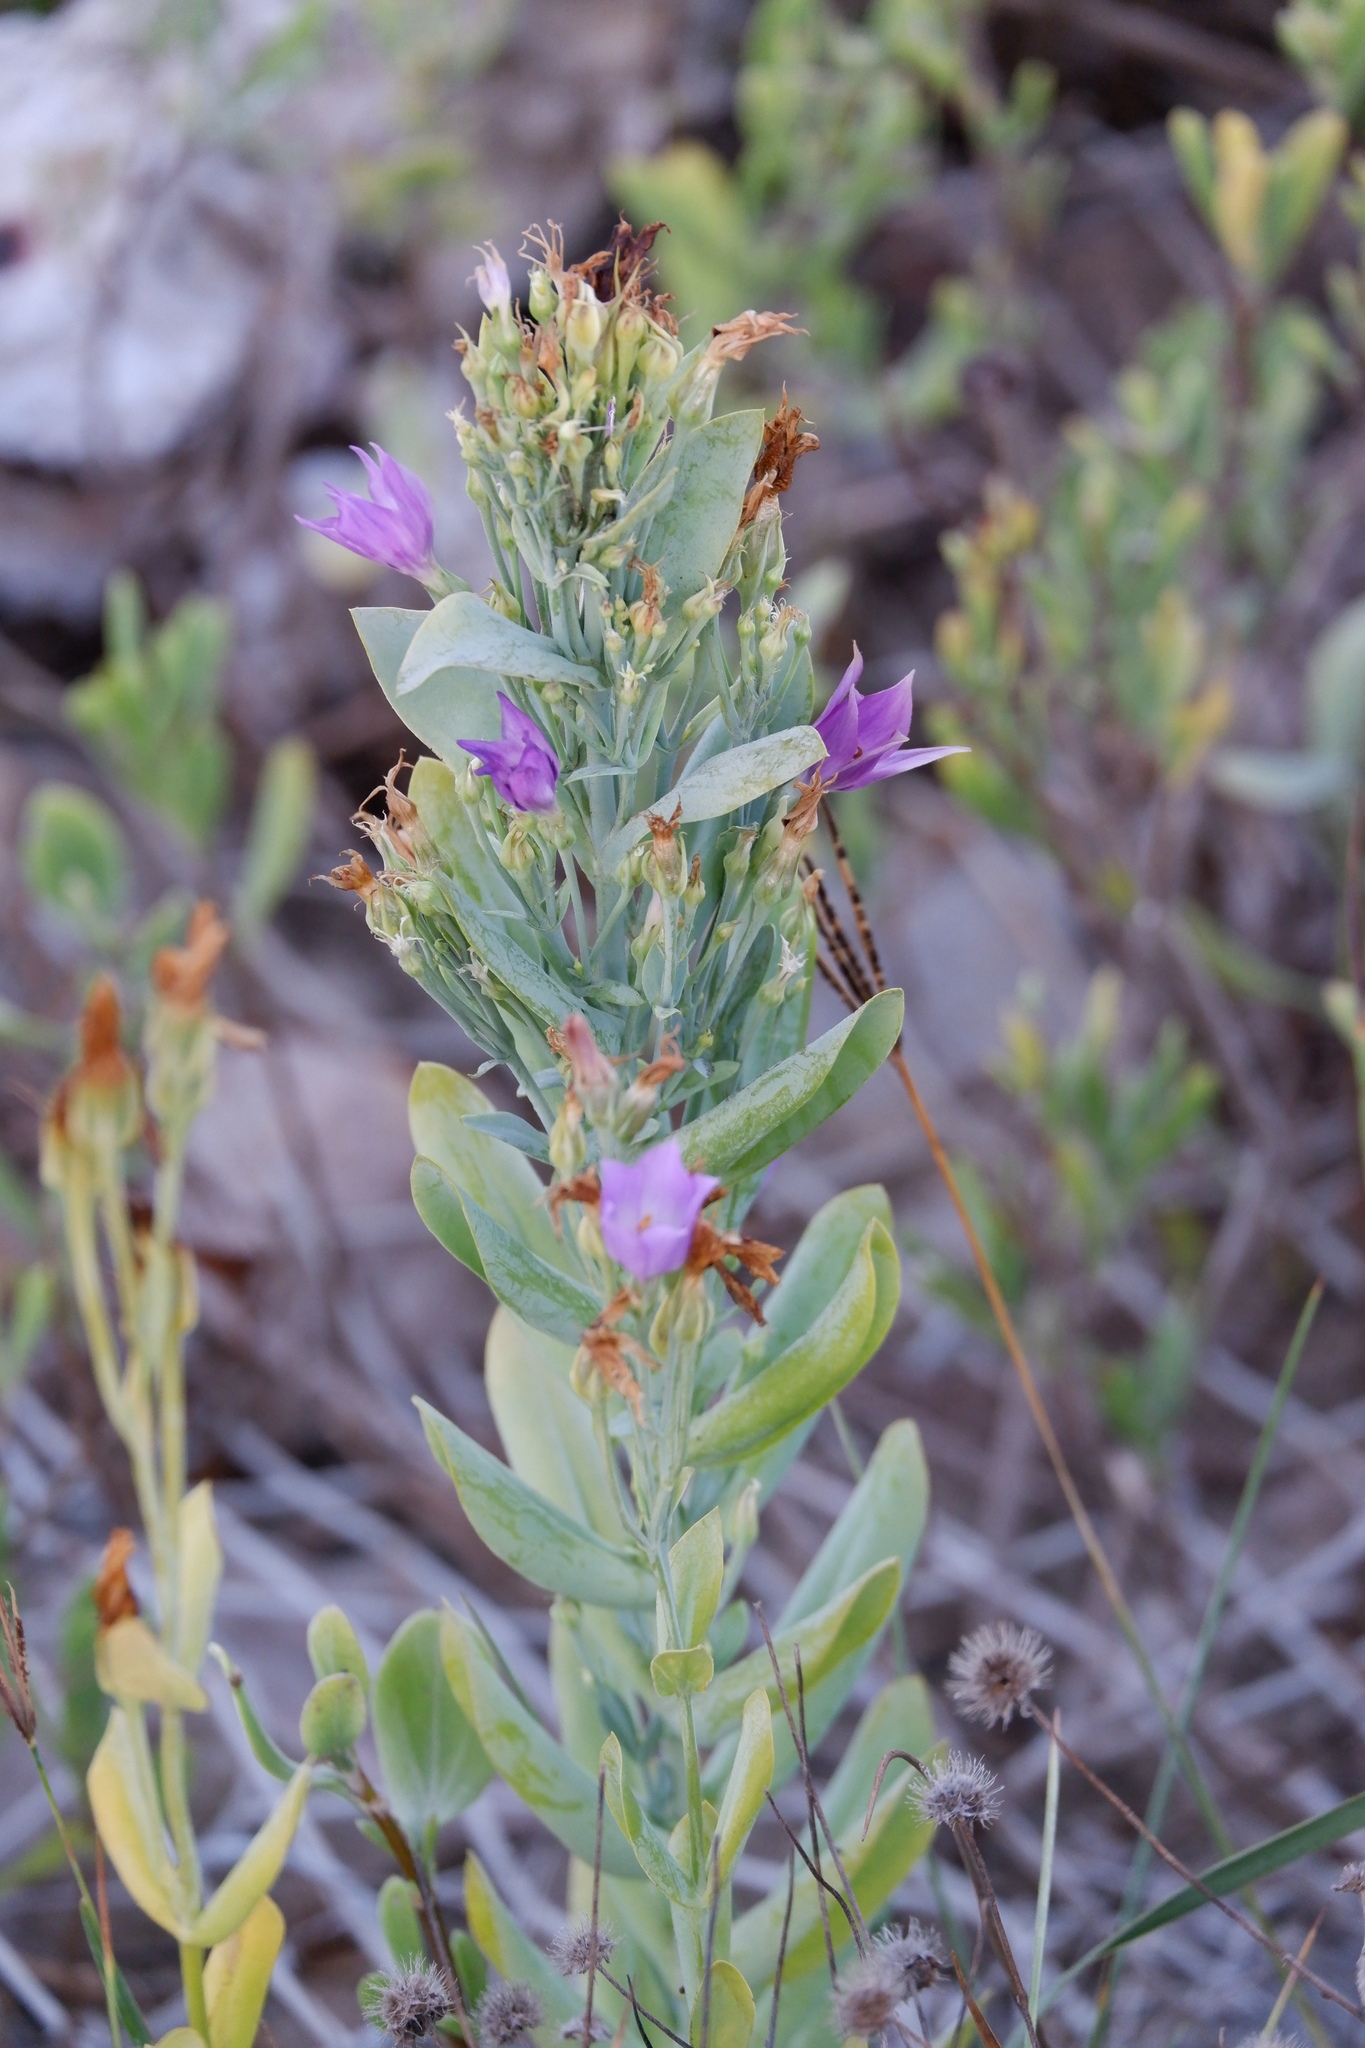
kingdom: Plantae
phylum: Tracheophyta
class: Magnoliopsida
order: Gentianales
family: Gentianaceae
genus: Eustoma
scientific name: Eustoma exaltatum
